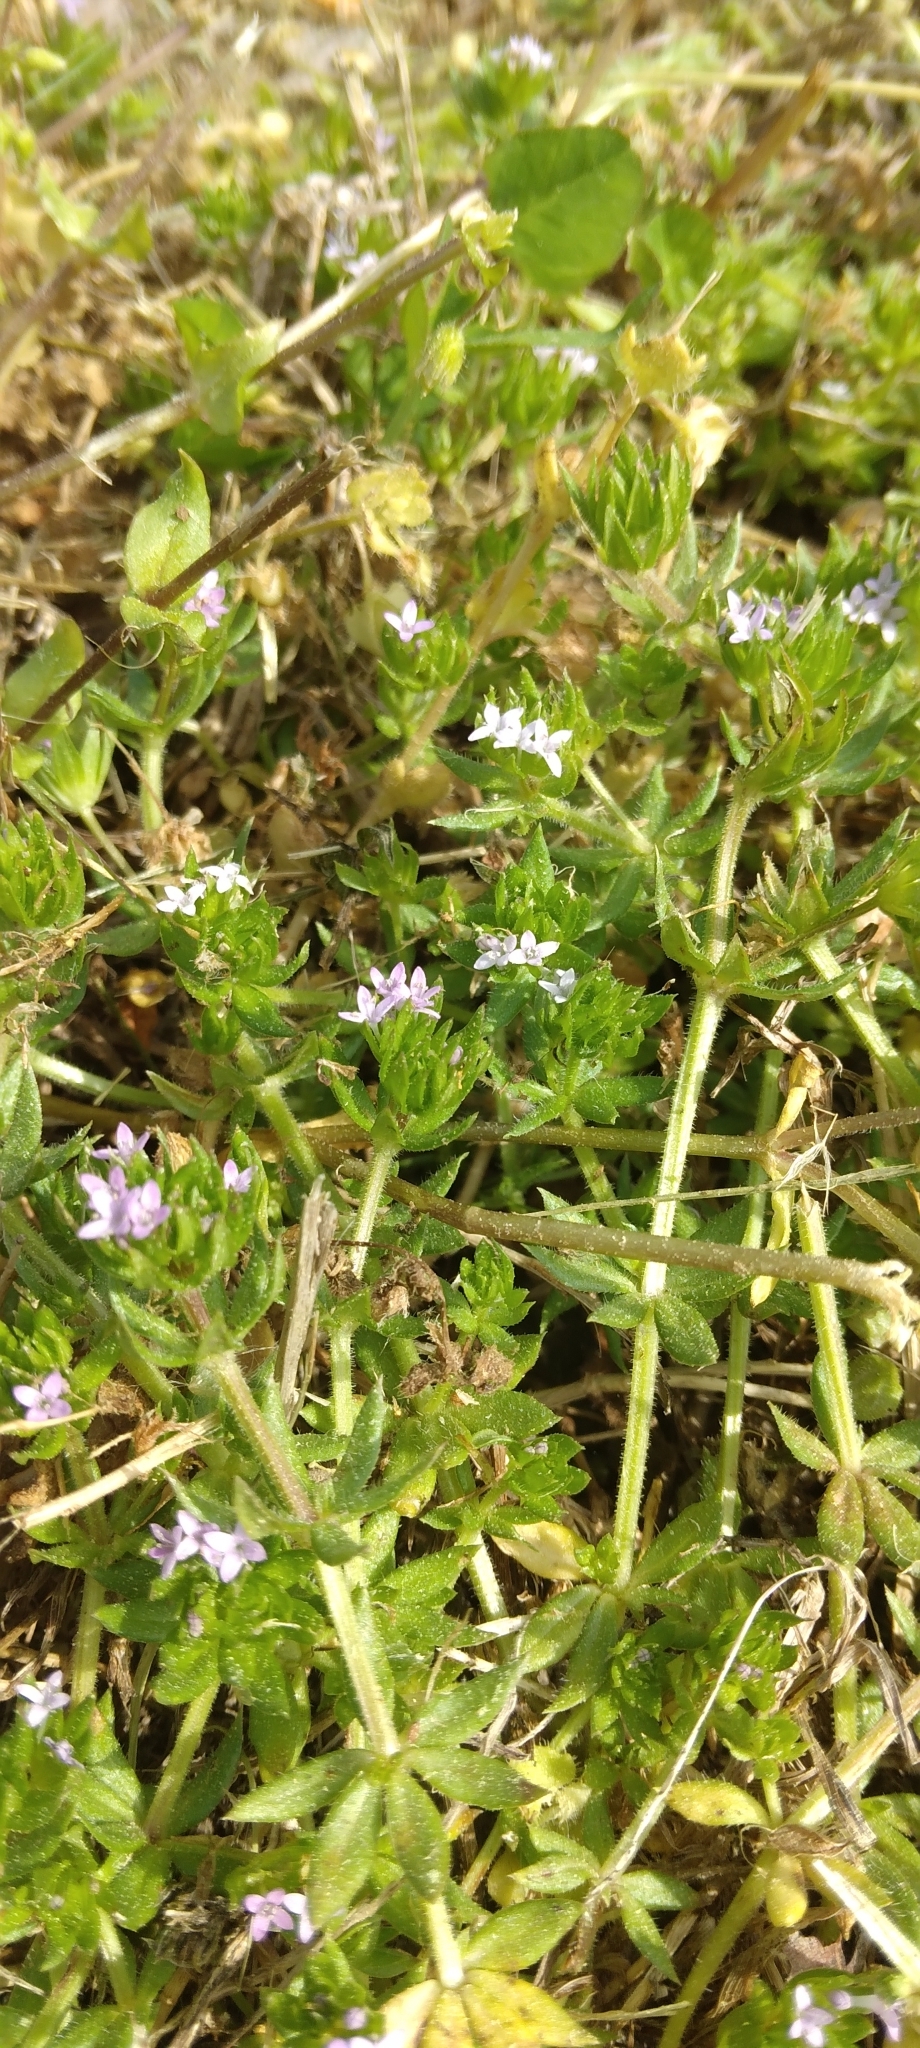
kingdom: Plantae
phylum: Tracheophyta
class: Magnoliopsida
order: Gentianales
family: Rubiaceae
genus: Sherardia
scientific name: Sherardia arvensis
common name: Field madder
